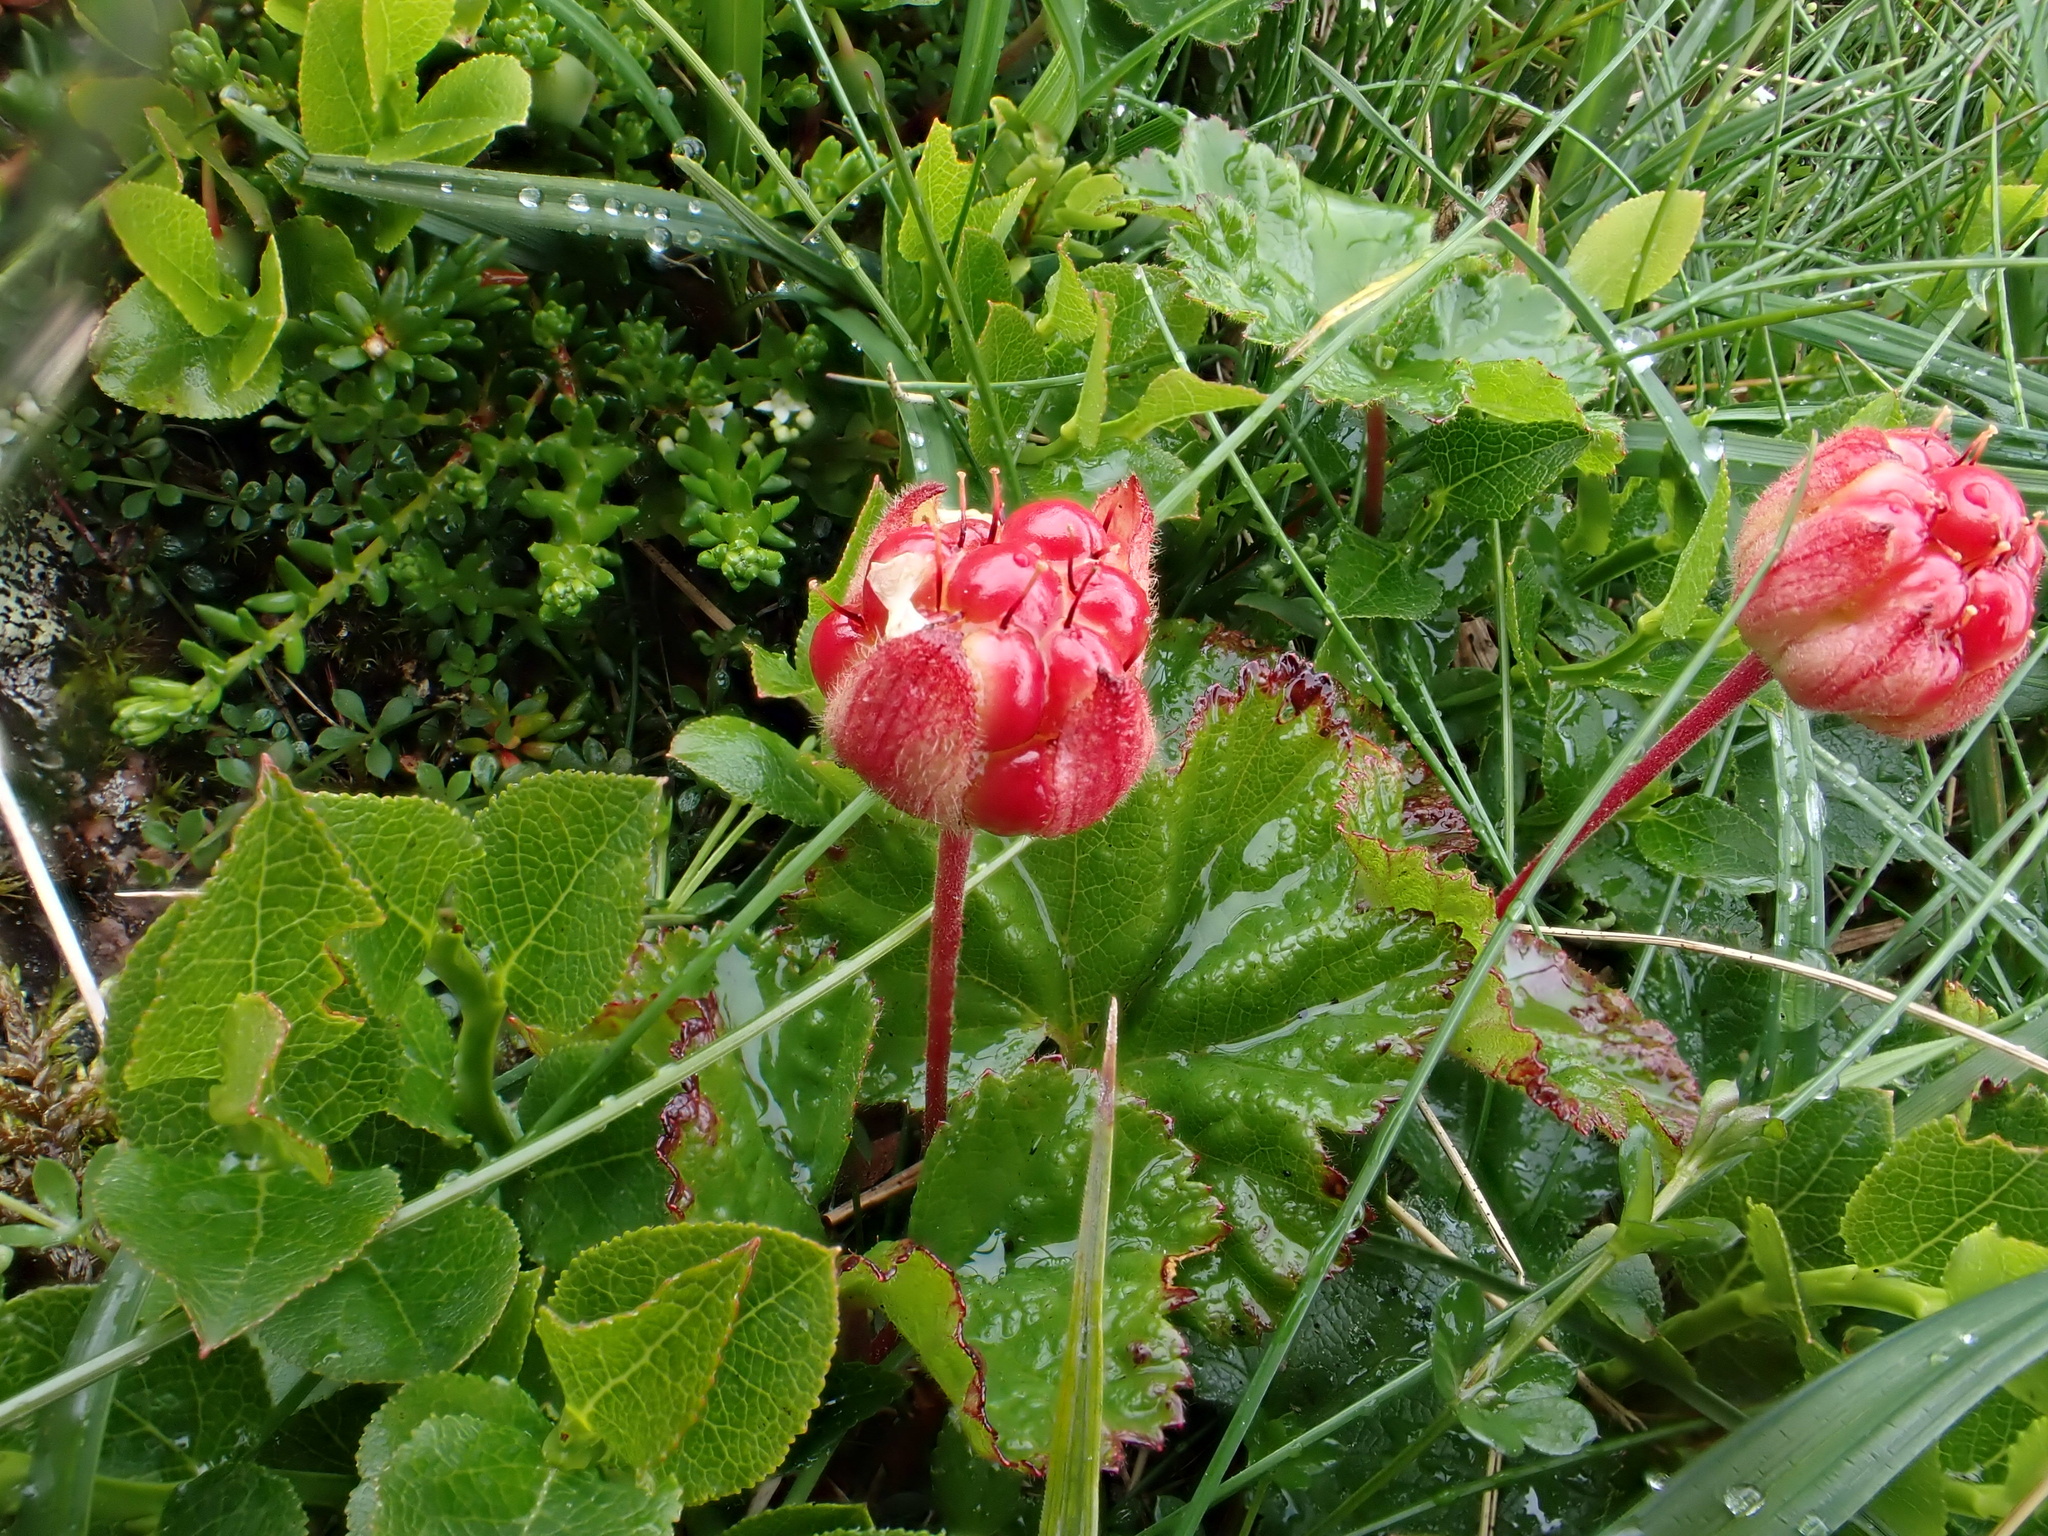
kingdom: Plantae
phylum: Tracheophyta
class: Magnoliopsida
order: Rosales
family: Rosaceae
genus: Rubus
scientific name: Rubus chamaemorus
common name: Cloudberry
